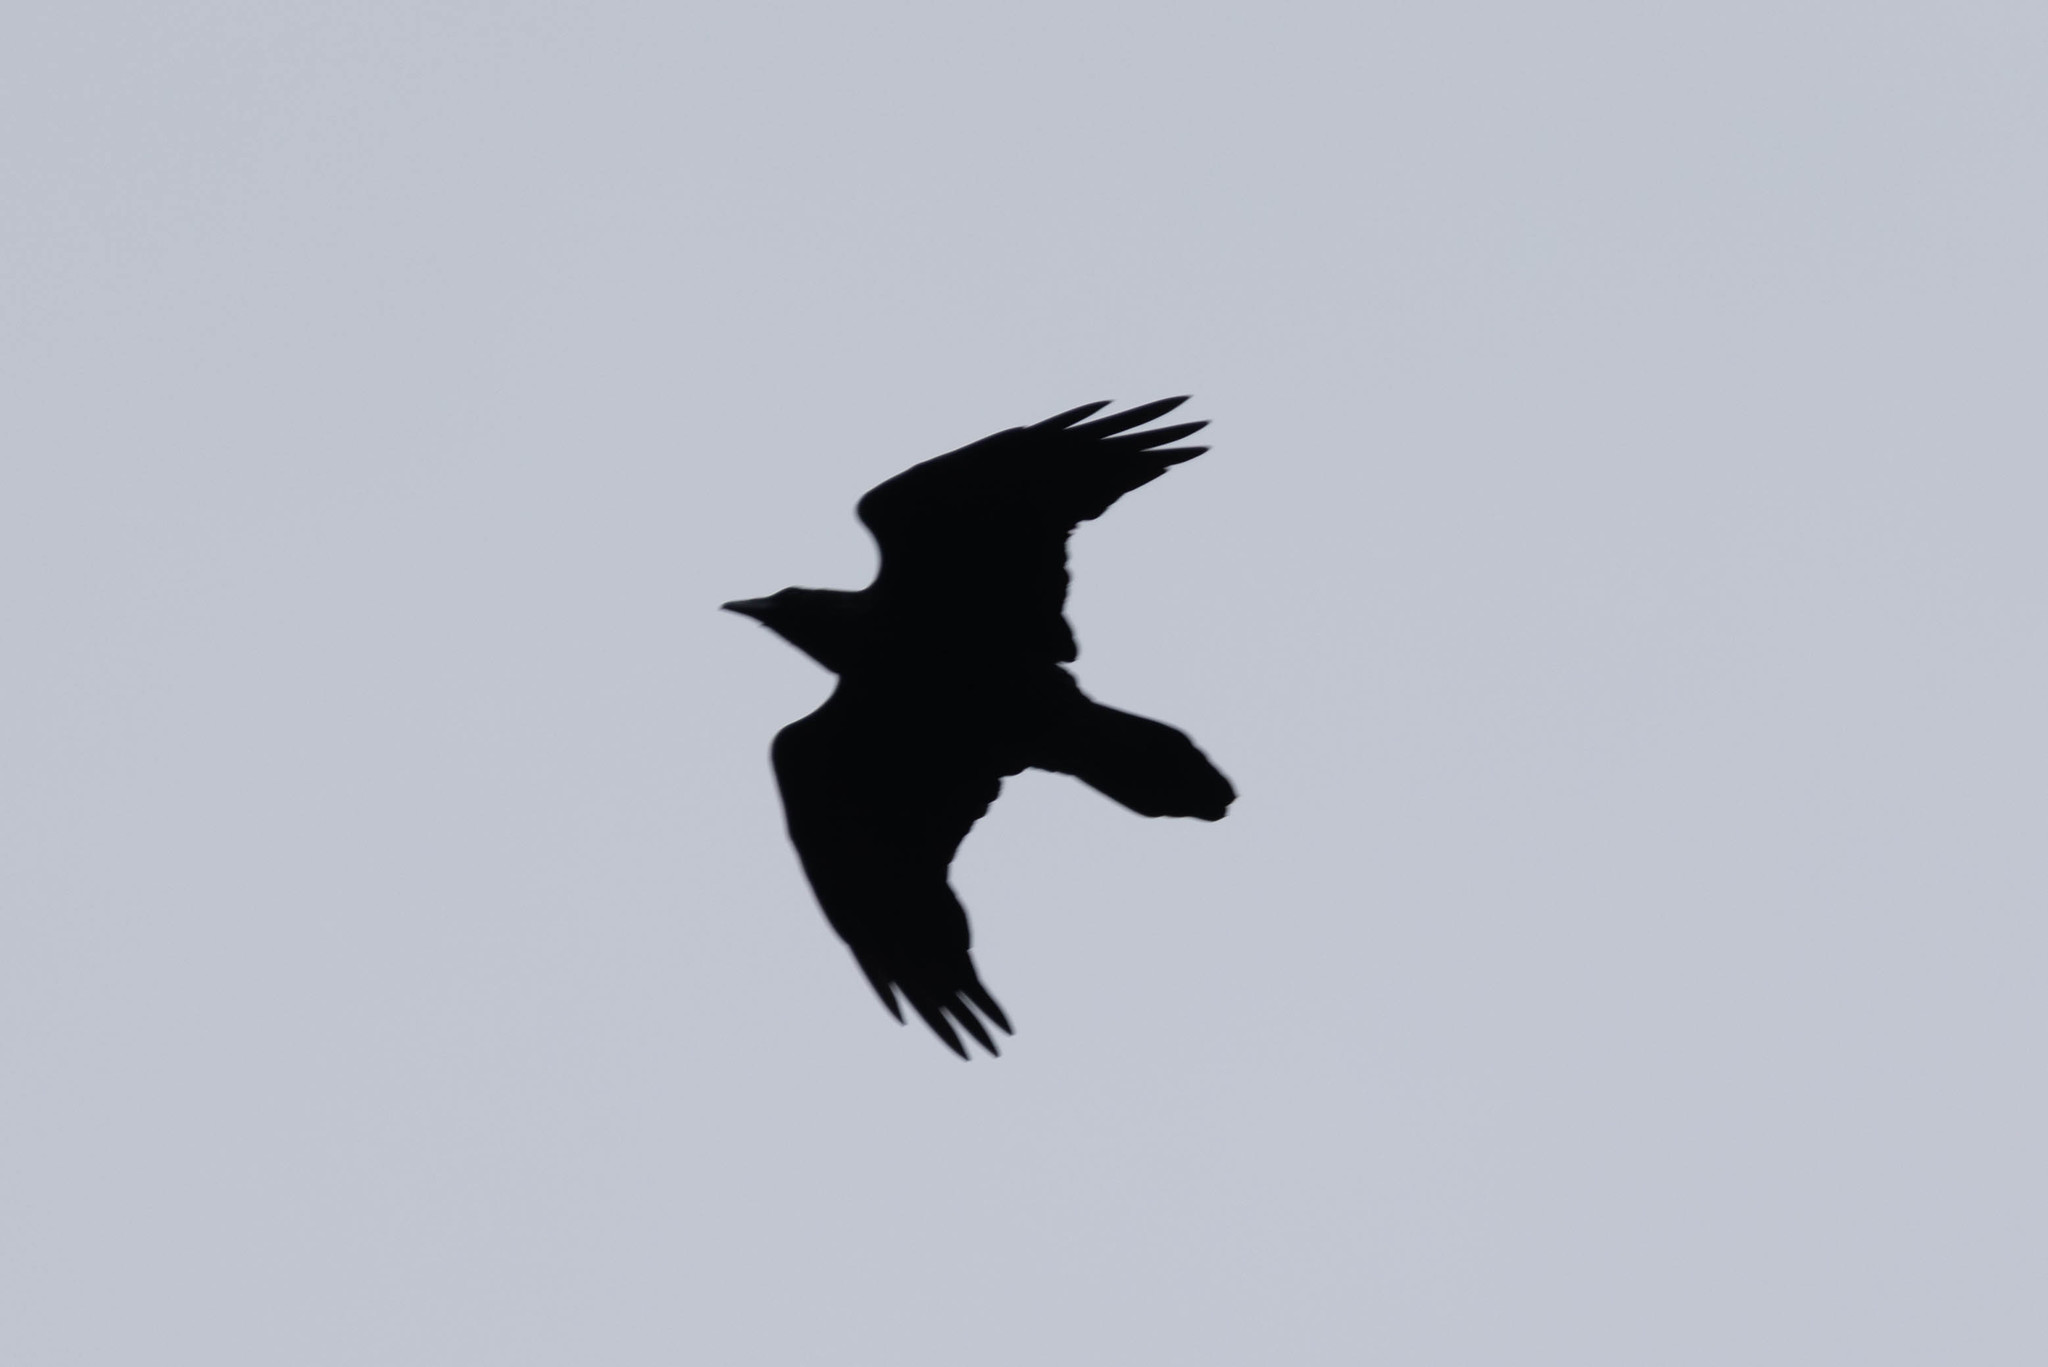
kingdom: Animalia
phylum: Chordata
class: Aves
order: Passeriformes
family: Corvidae
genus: Corvus
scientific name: Corvus corax
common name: Common raven
